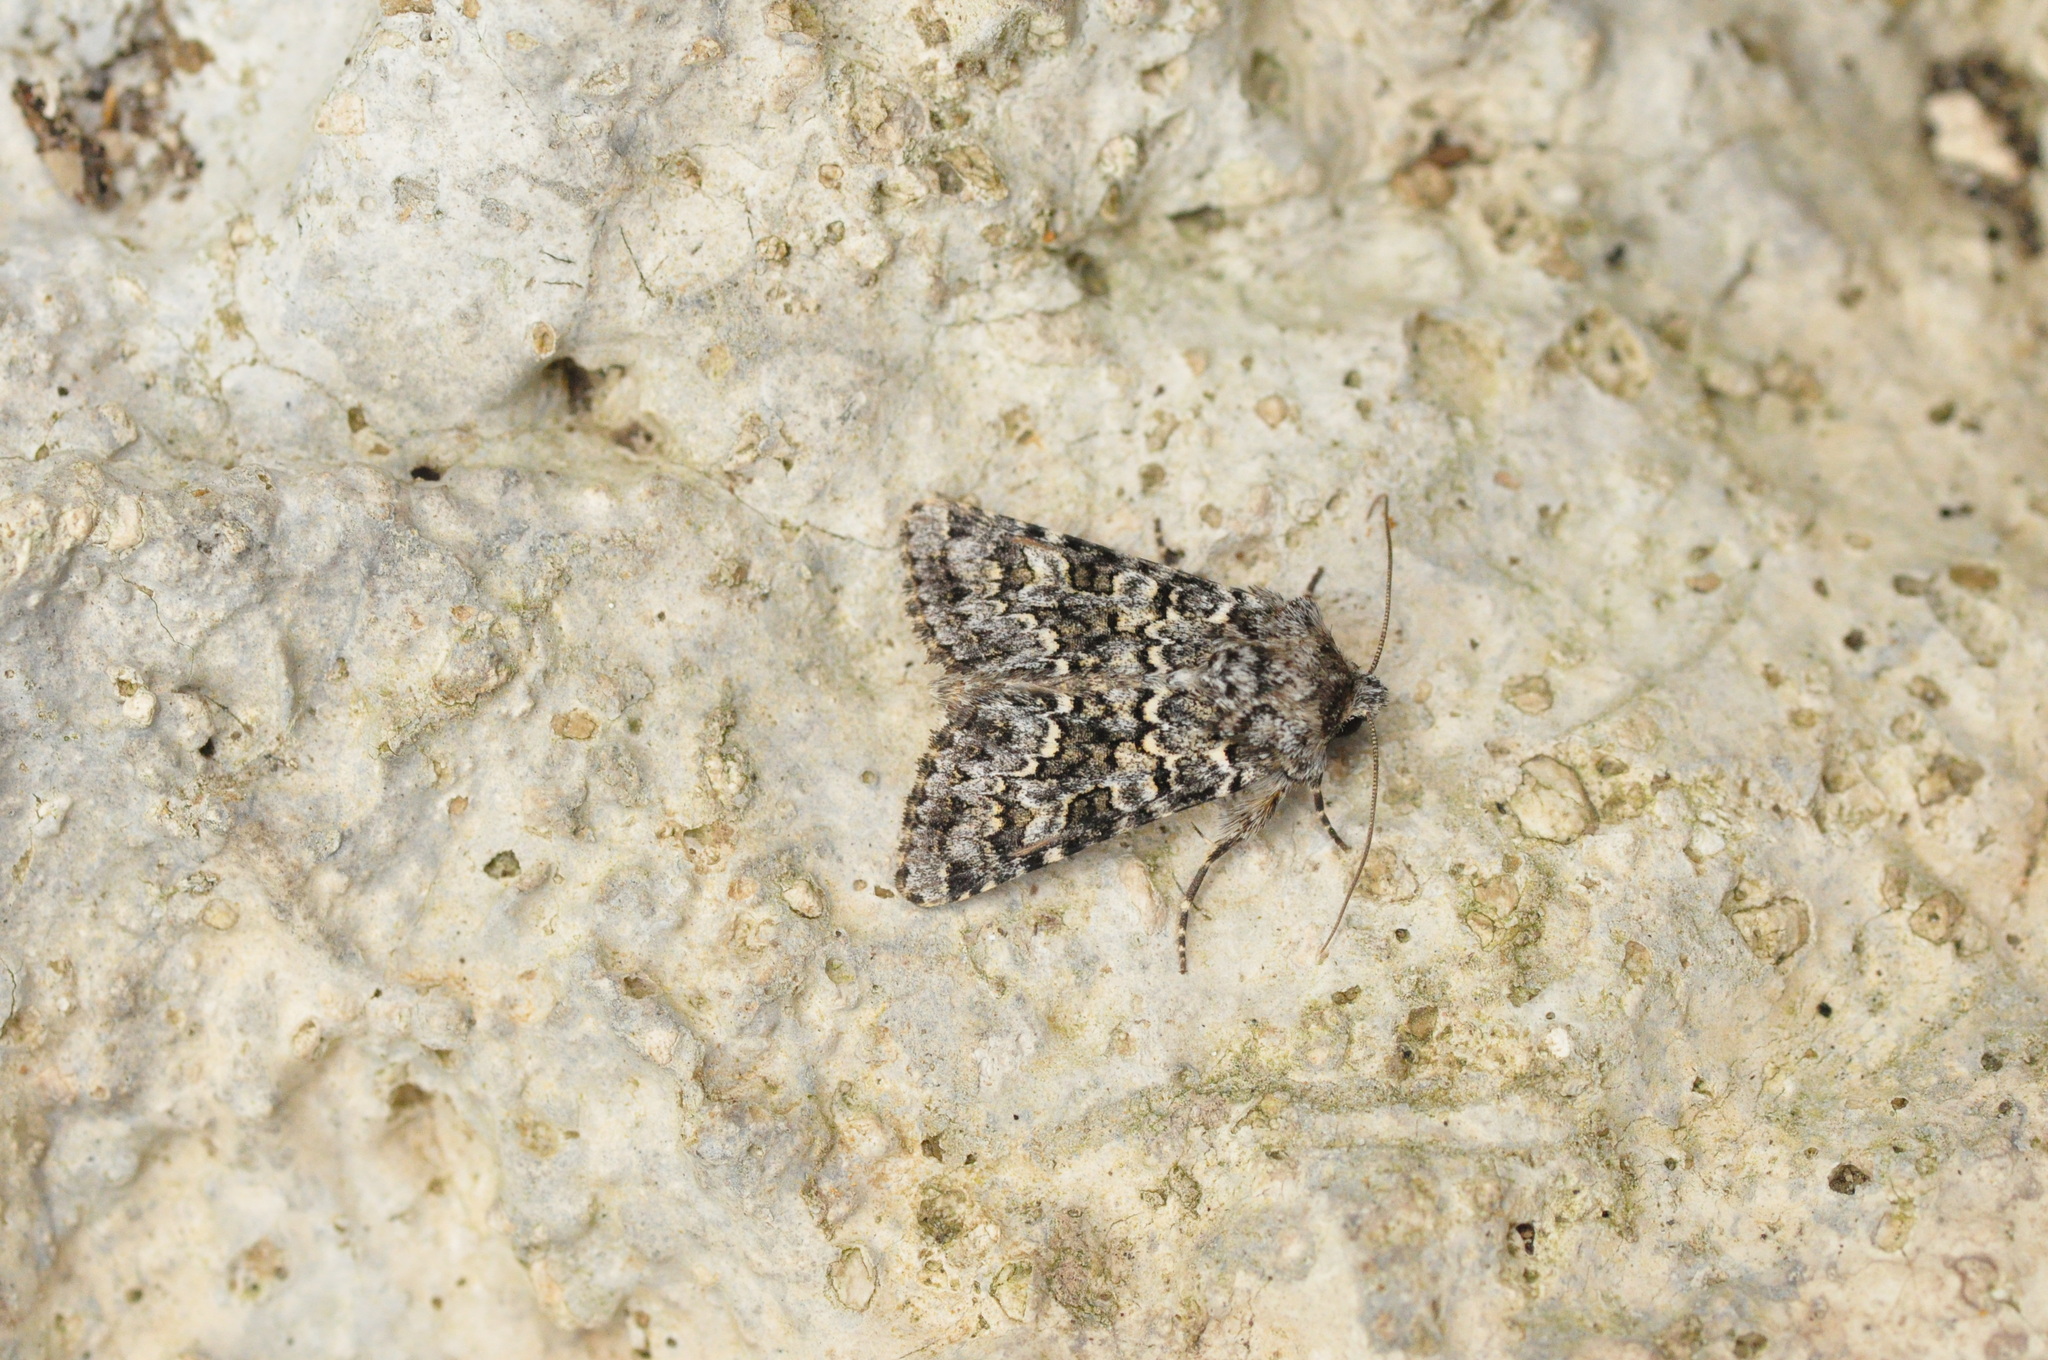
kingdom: Animalia
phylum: Arthropoda
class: Insecta
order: Lepidoptera
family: Noctuidae
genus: Hecatera
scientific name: Hecatera maderae
